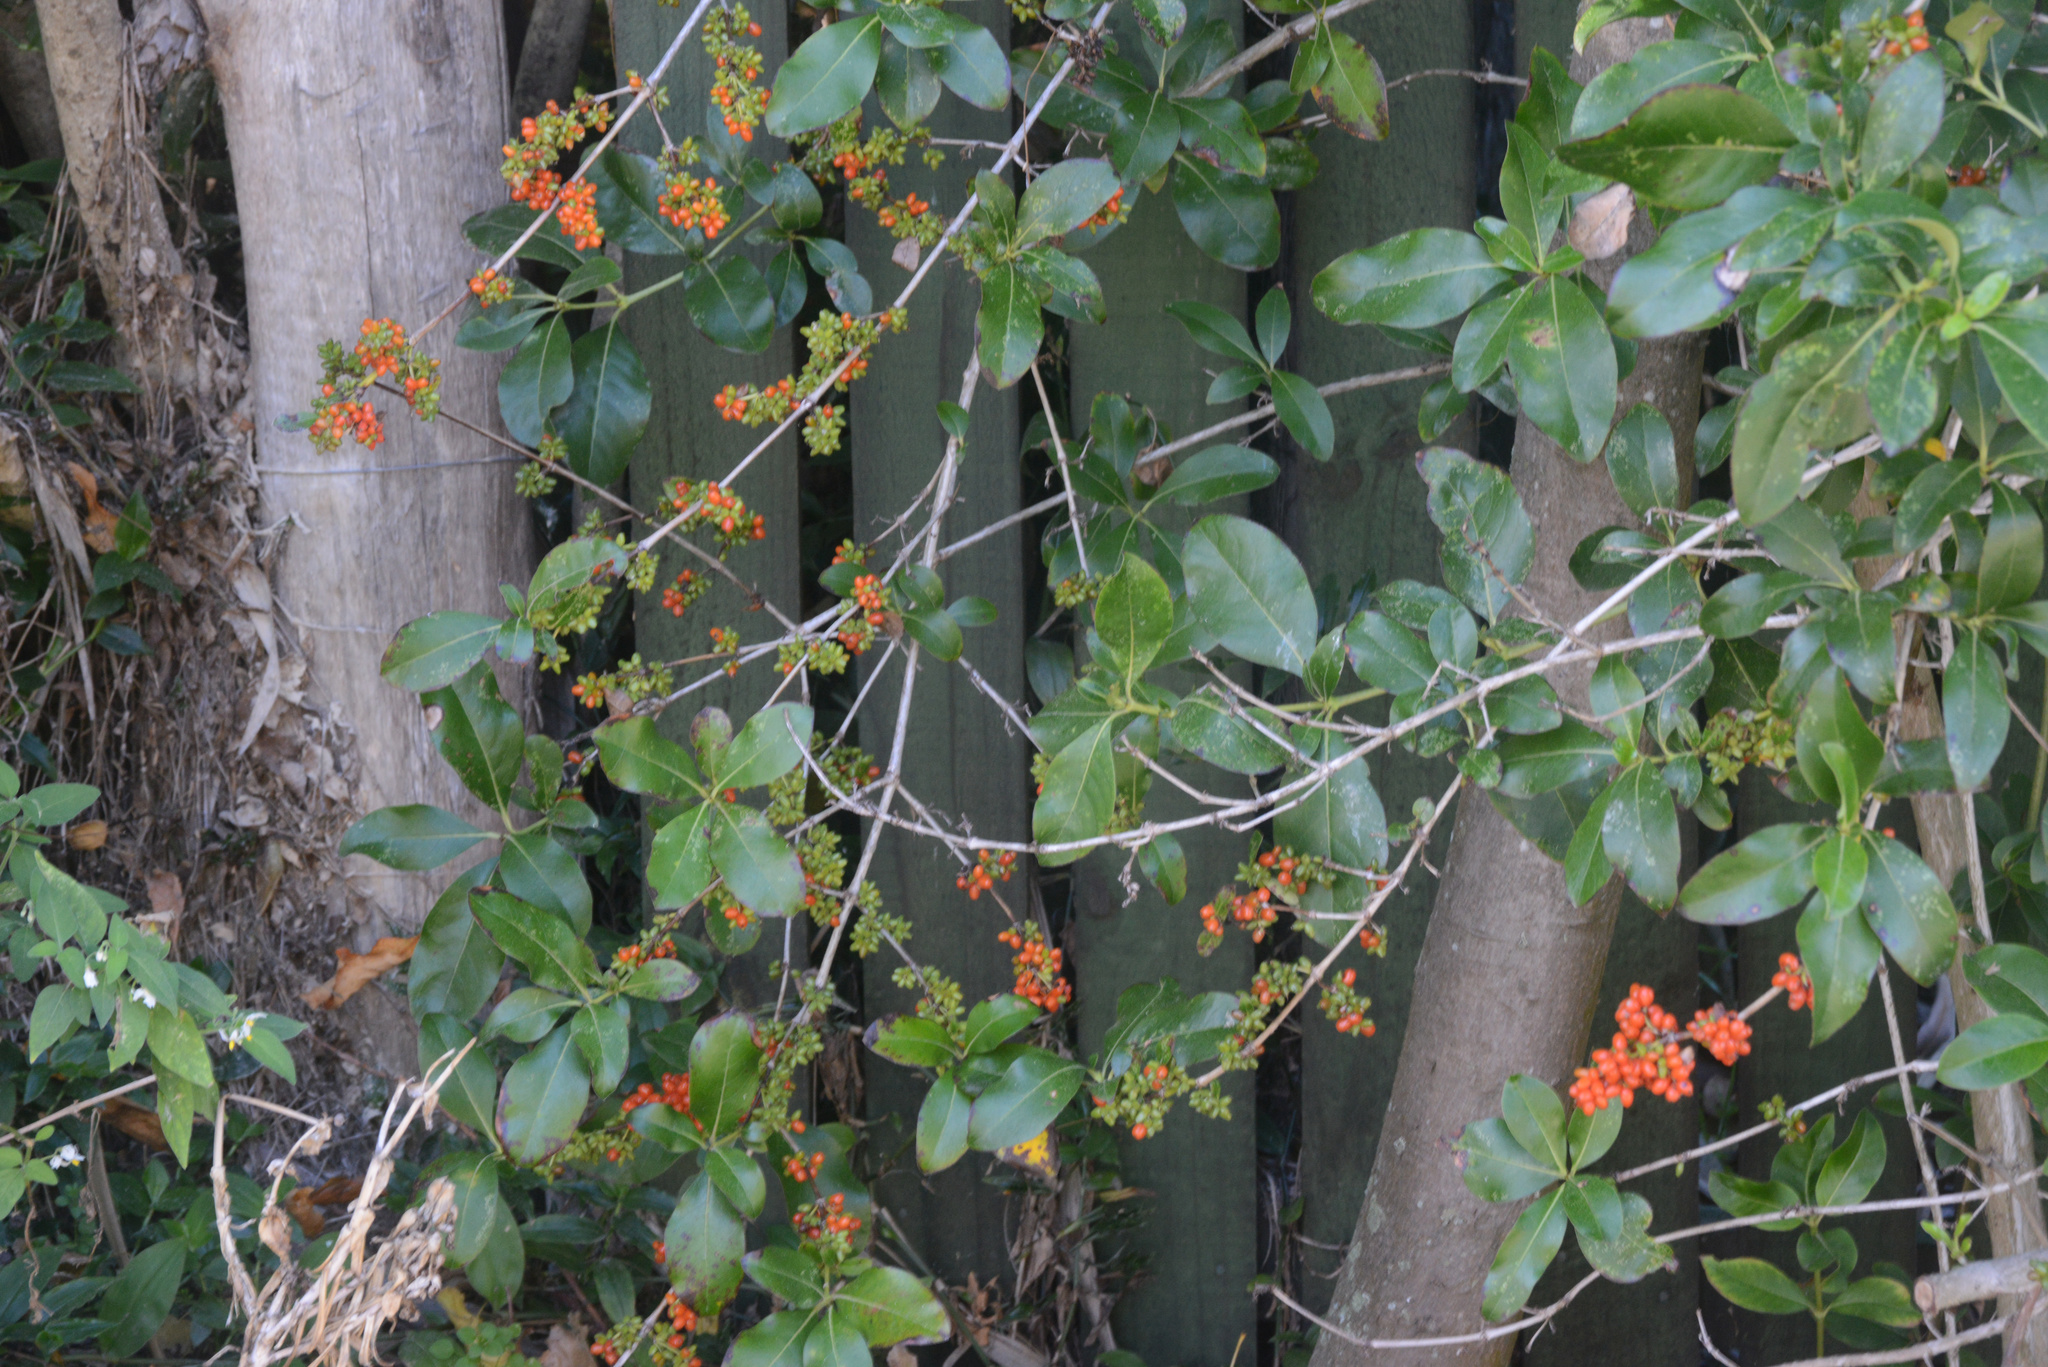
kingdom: Plantae
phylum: Tracheophyta
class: Magnoliopsida
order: Gentianales
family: Rubiaceae
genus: Coprosma
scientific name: Coprosma robusta
